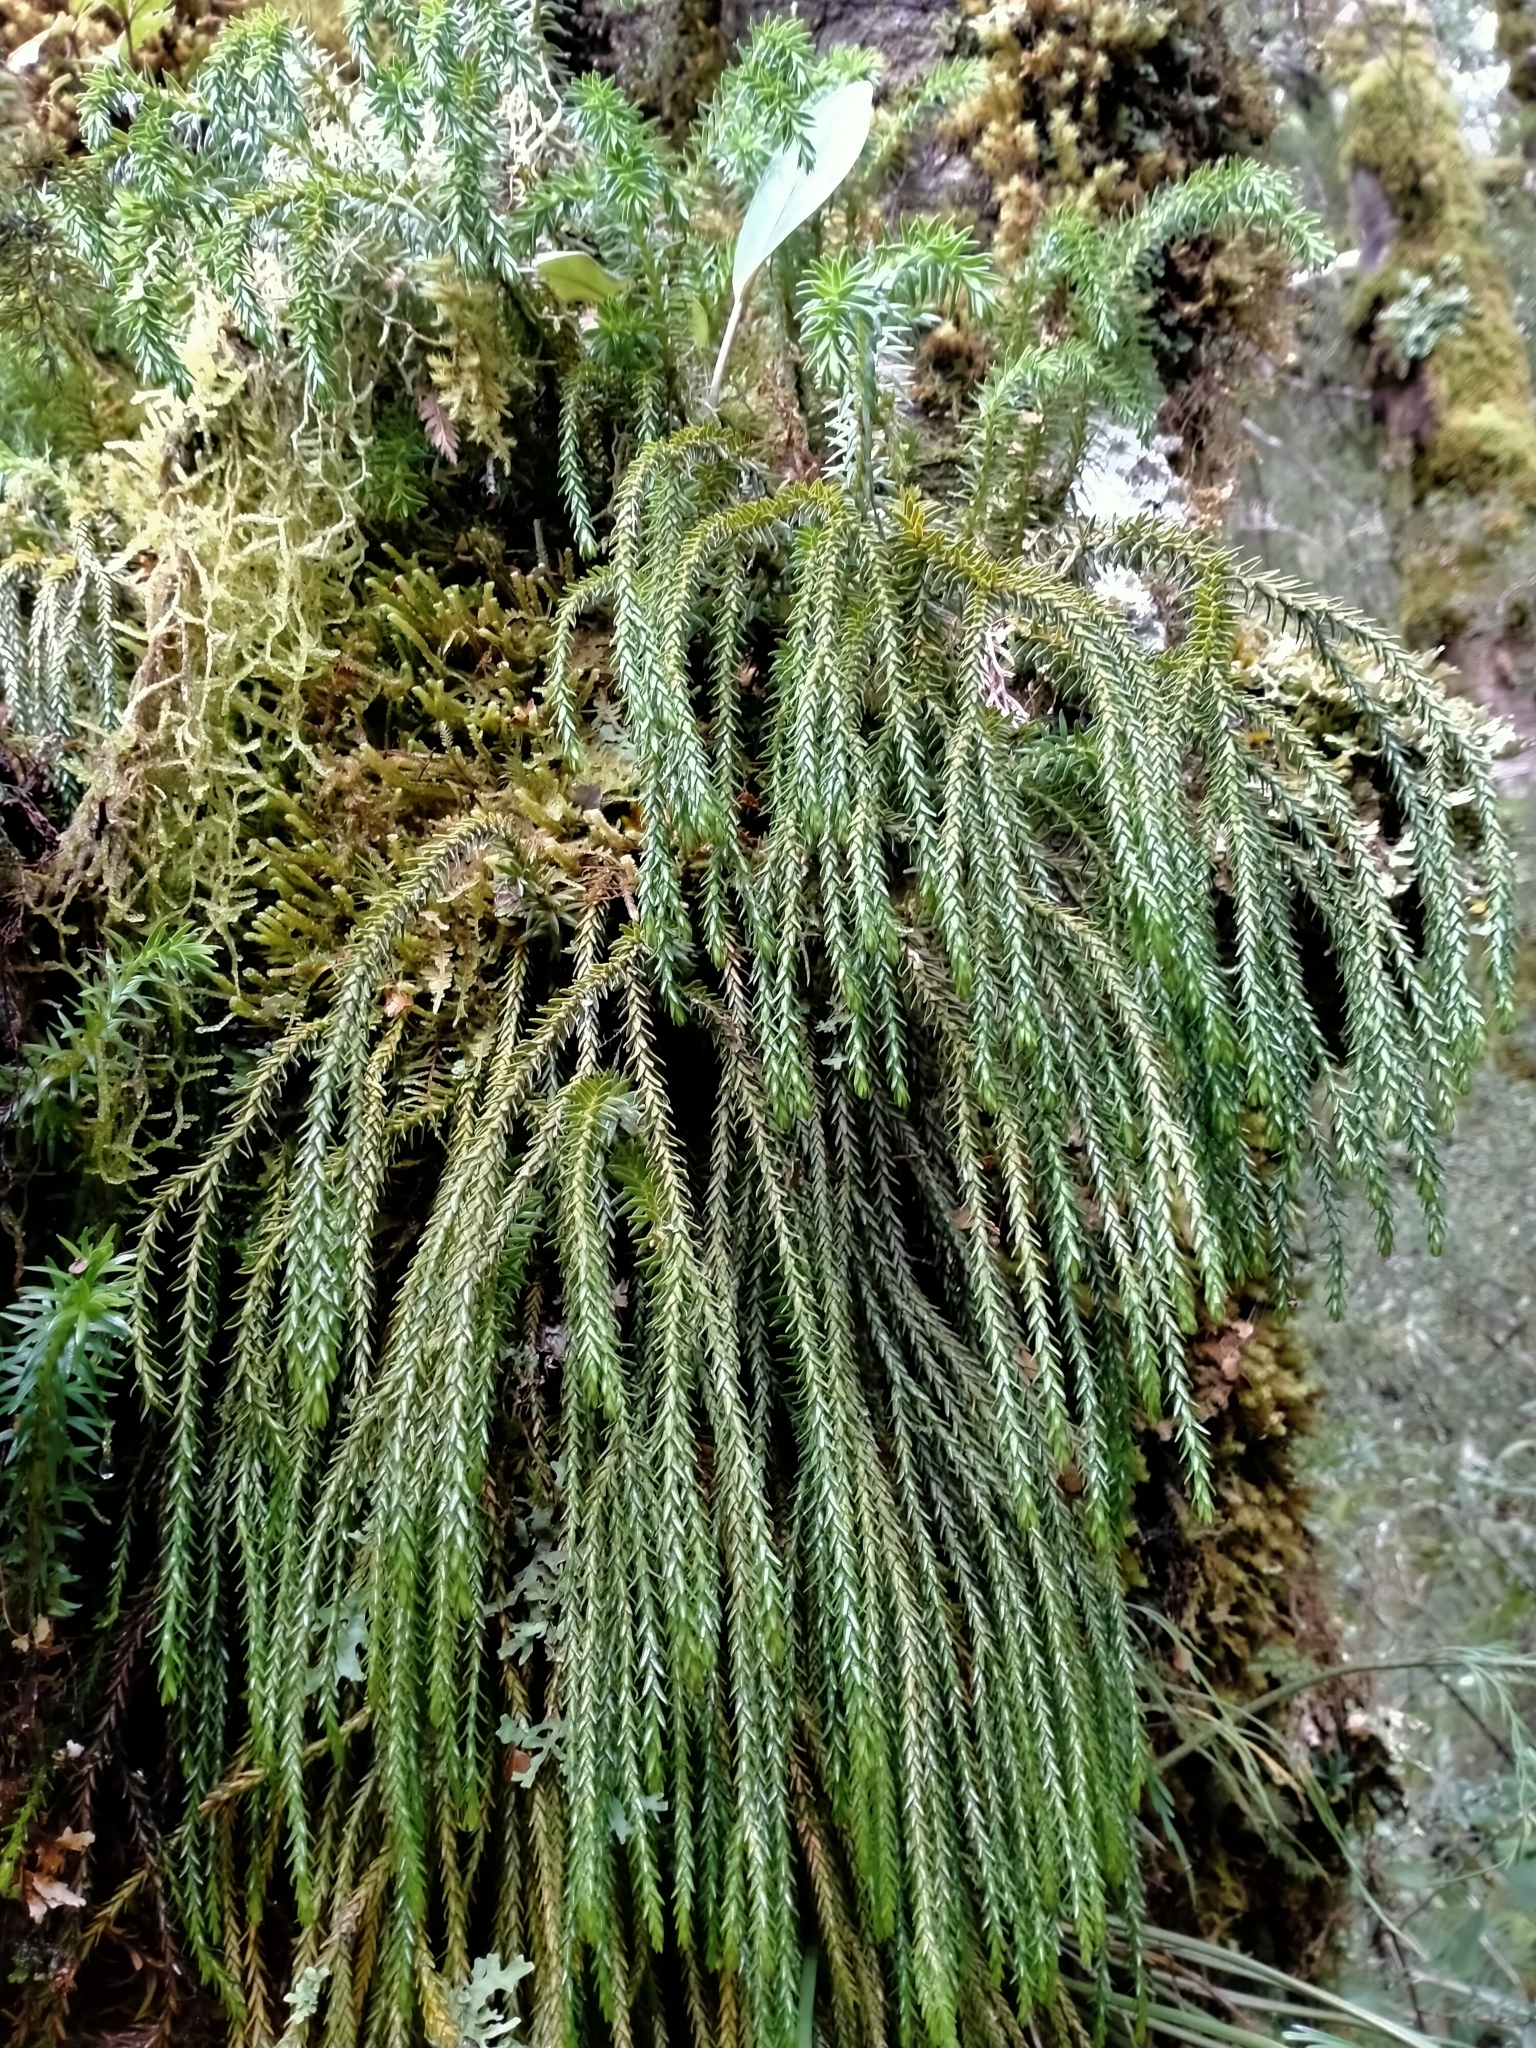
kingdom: Plantae
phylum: Tracheophyta
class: Lycopodiopsida
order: Lycopodiales
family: Lycopodiaceae
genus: Phlegmariurus
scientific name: Phlegmariurus varius
